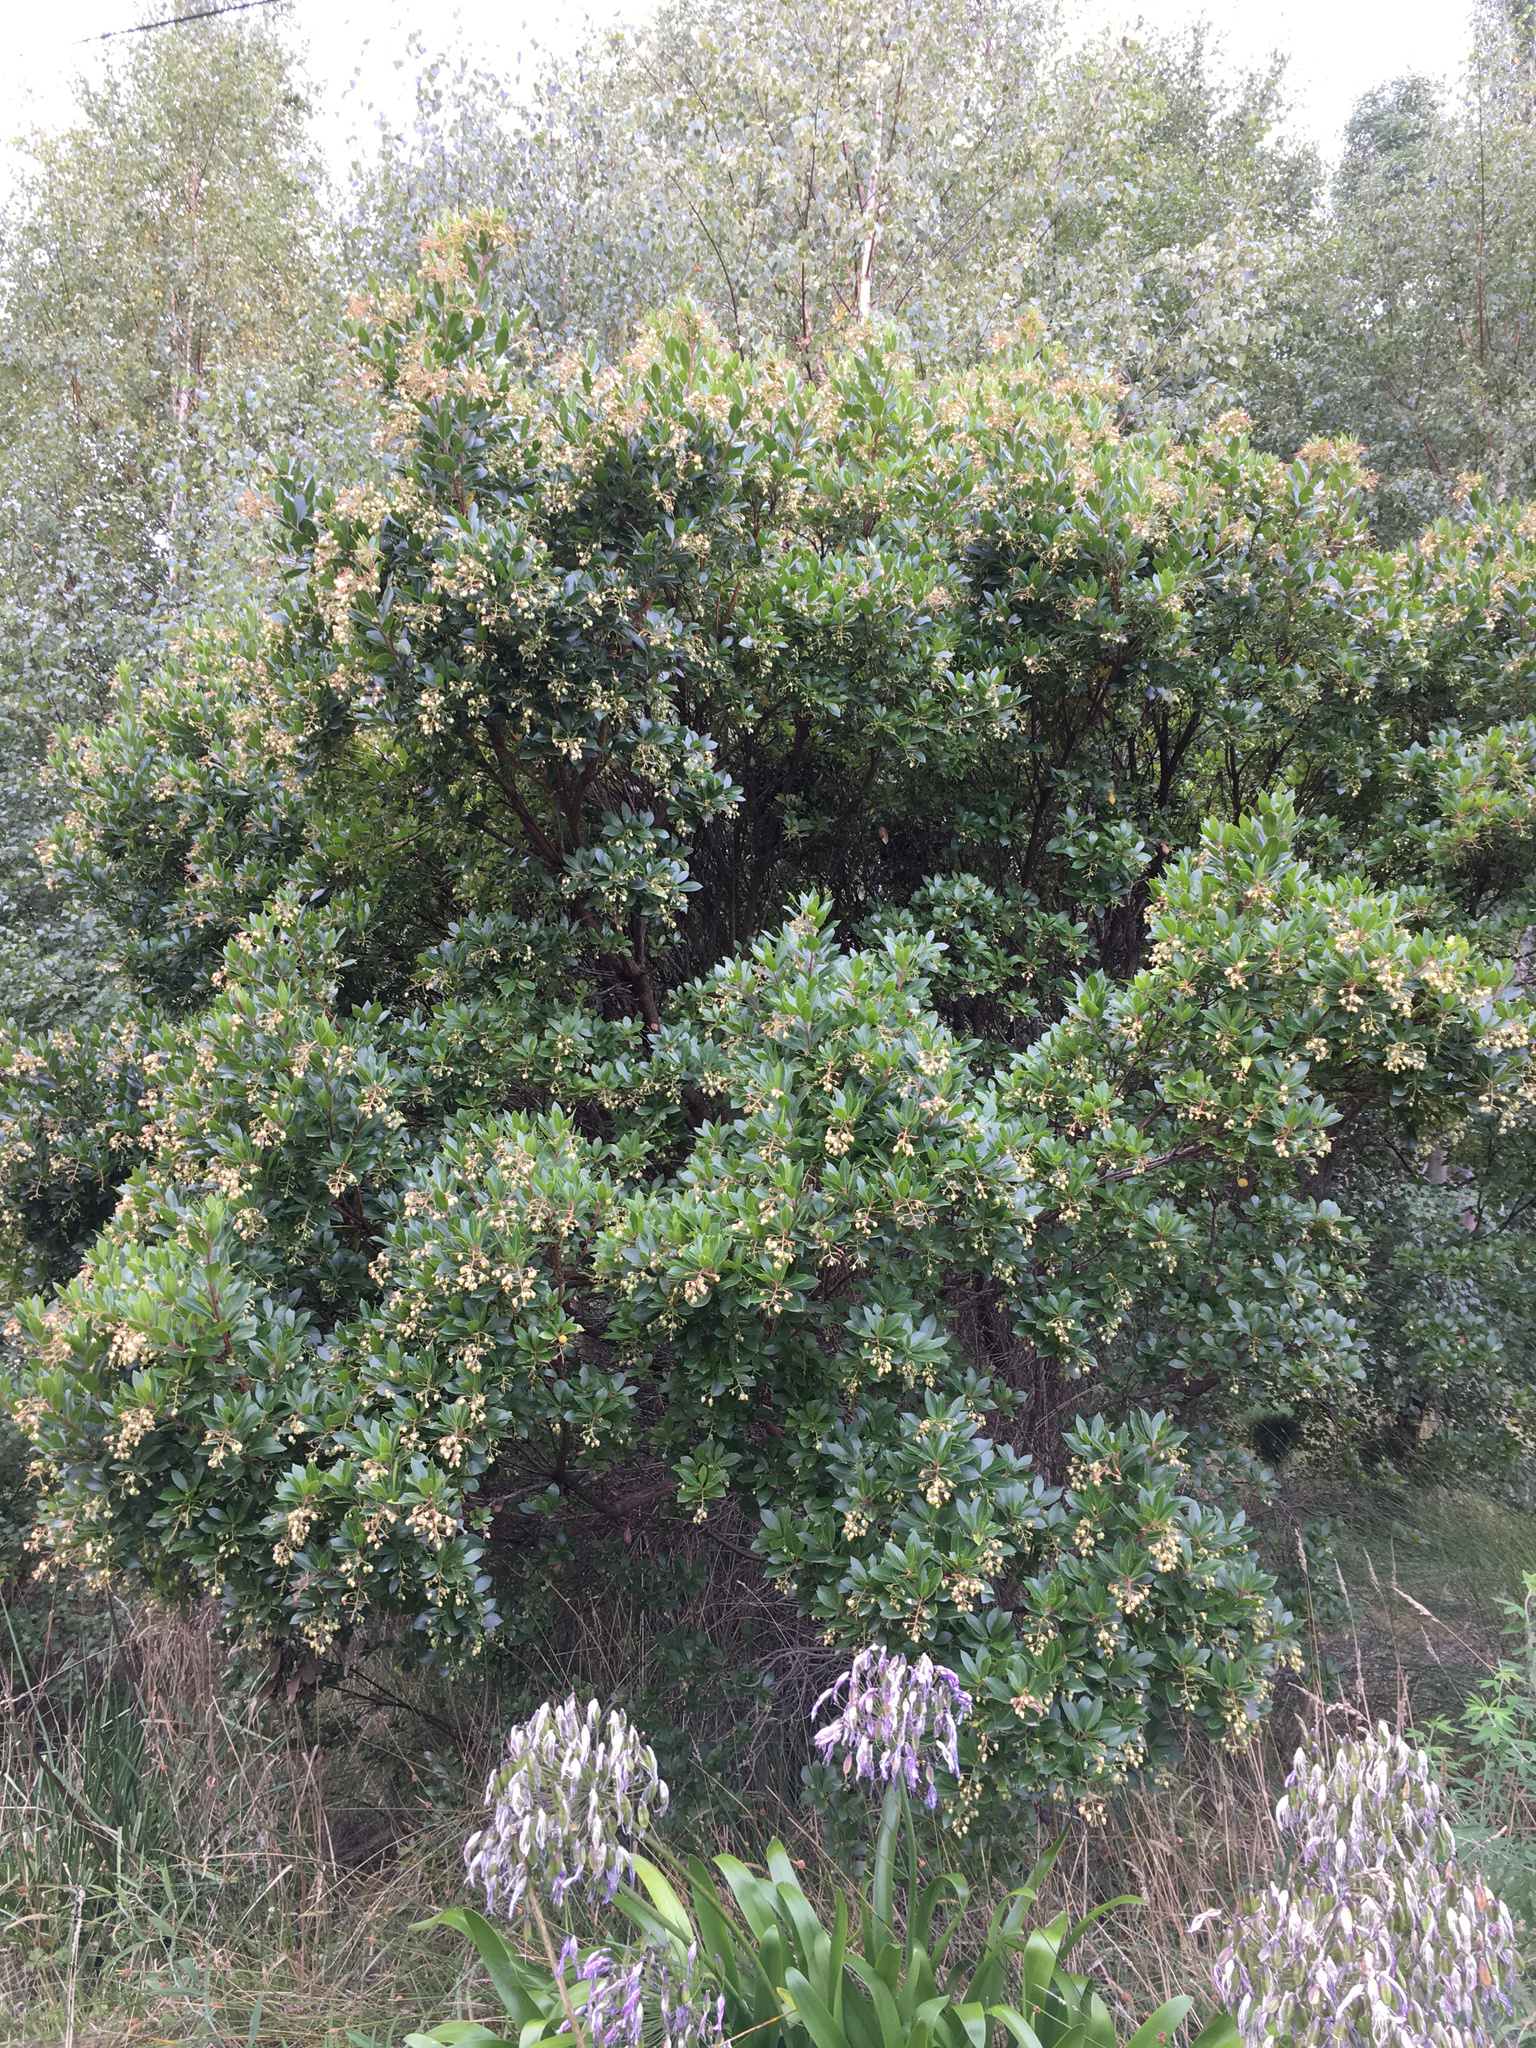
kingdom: Plantae
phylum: Tracheophyta
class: Magnoliopsida
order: Ericales
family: Ericaceae
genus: Arbutus
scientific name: Arbutus unedo
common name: Strawberry-tree
